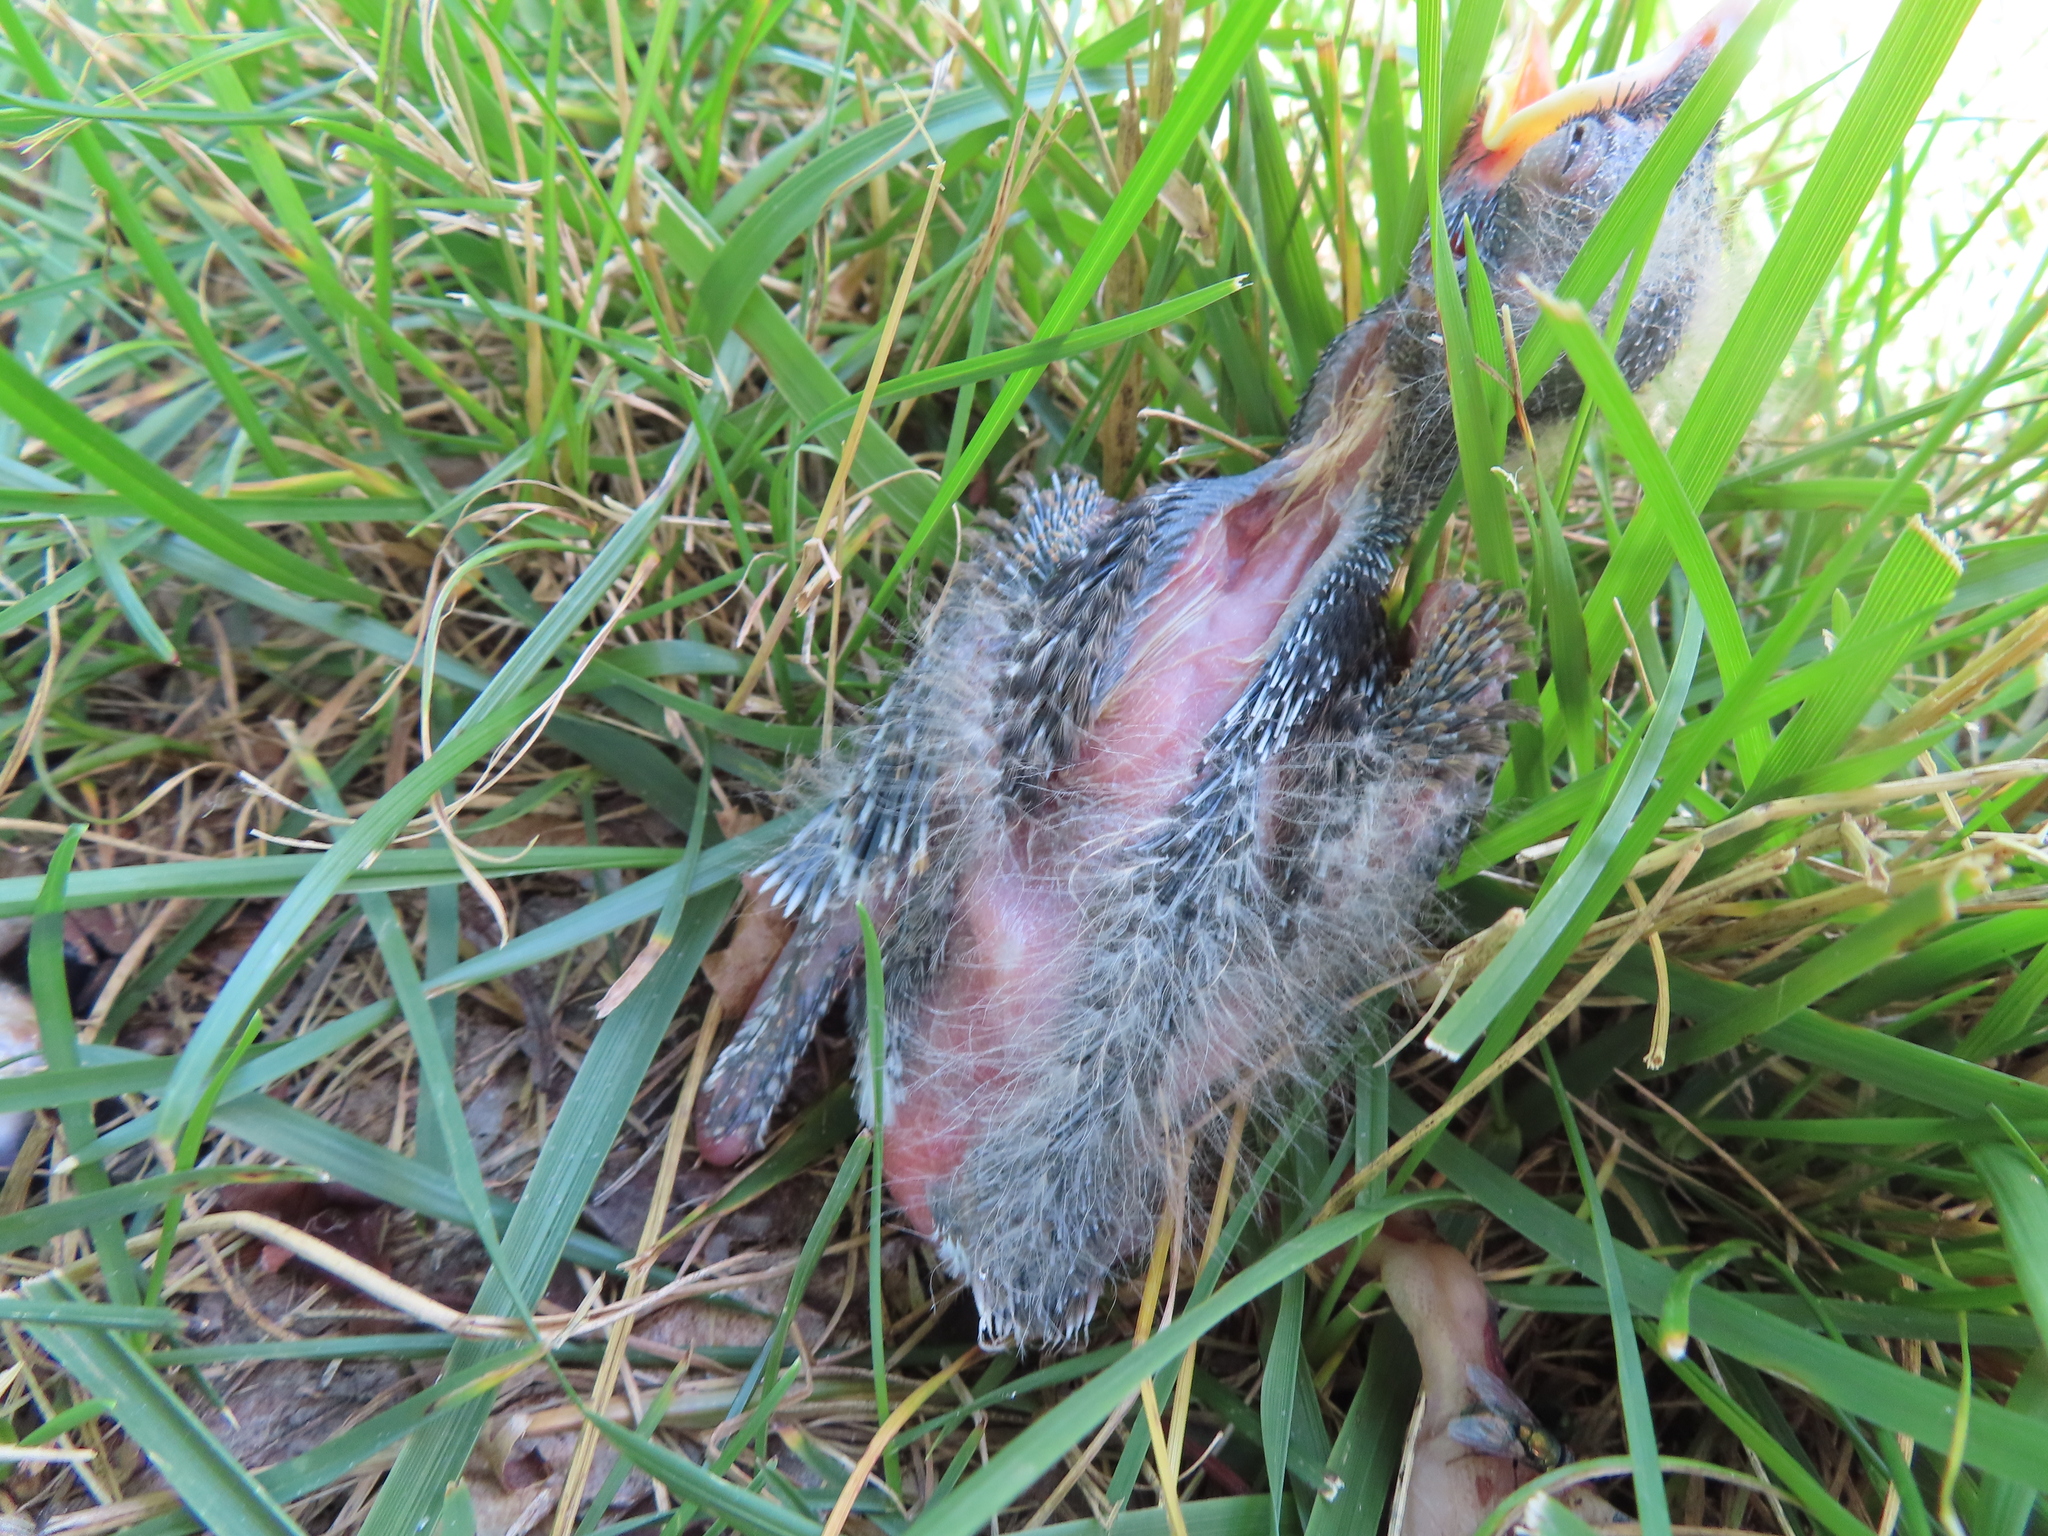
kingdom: Animalia
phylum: Chordata
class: Aves
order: Passeriformes
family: Turdidae
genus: Turdus
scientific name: Turdus migratorius
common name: American robin
